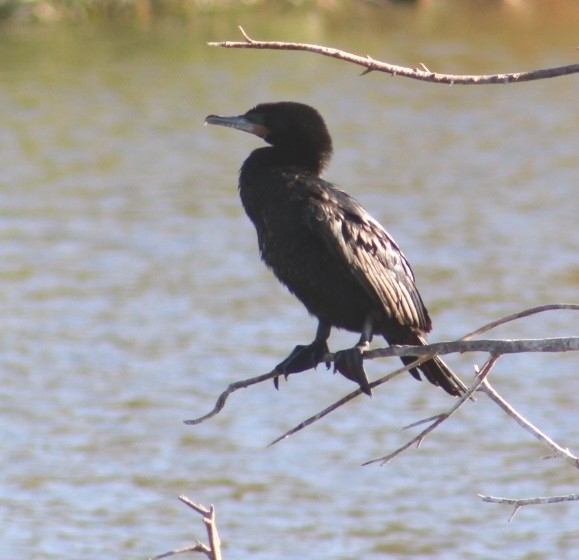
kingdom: Animalia
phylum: Chordata
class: Aves
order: Suliformes
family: Phalacrocoracidae
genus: Phalacrocorax
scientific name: Phalacrocorax brasilianus
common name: Neotropic cormorant
